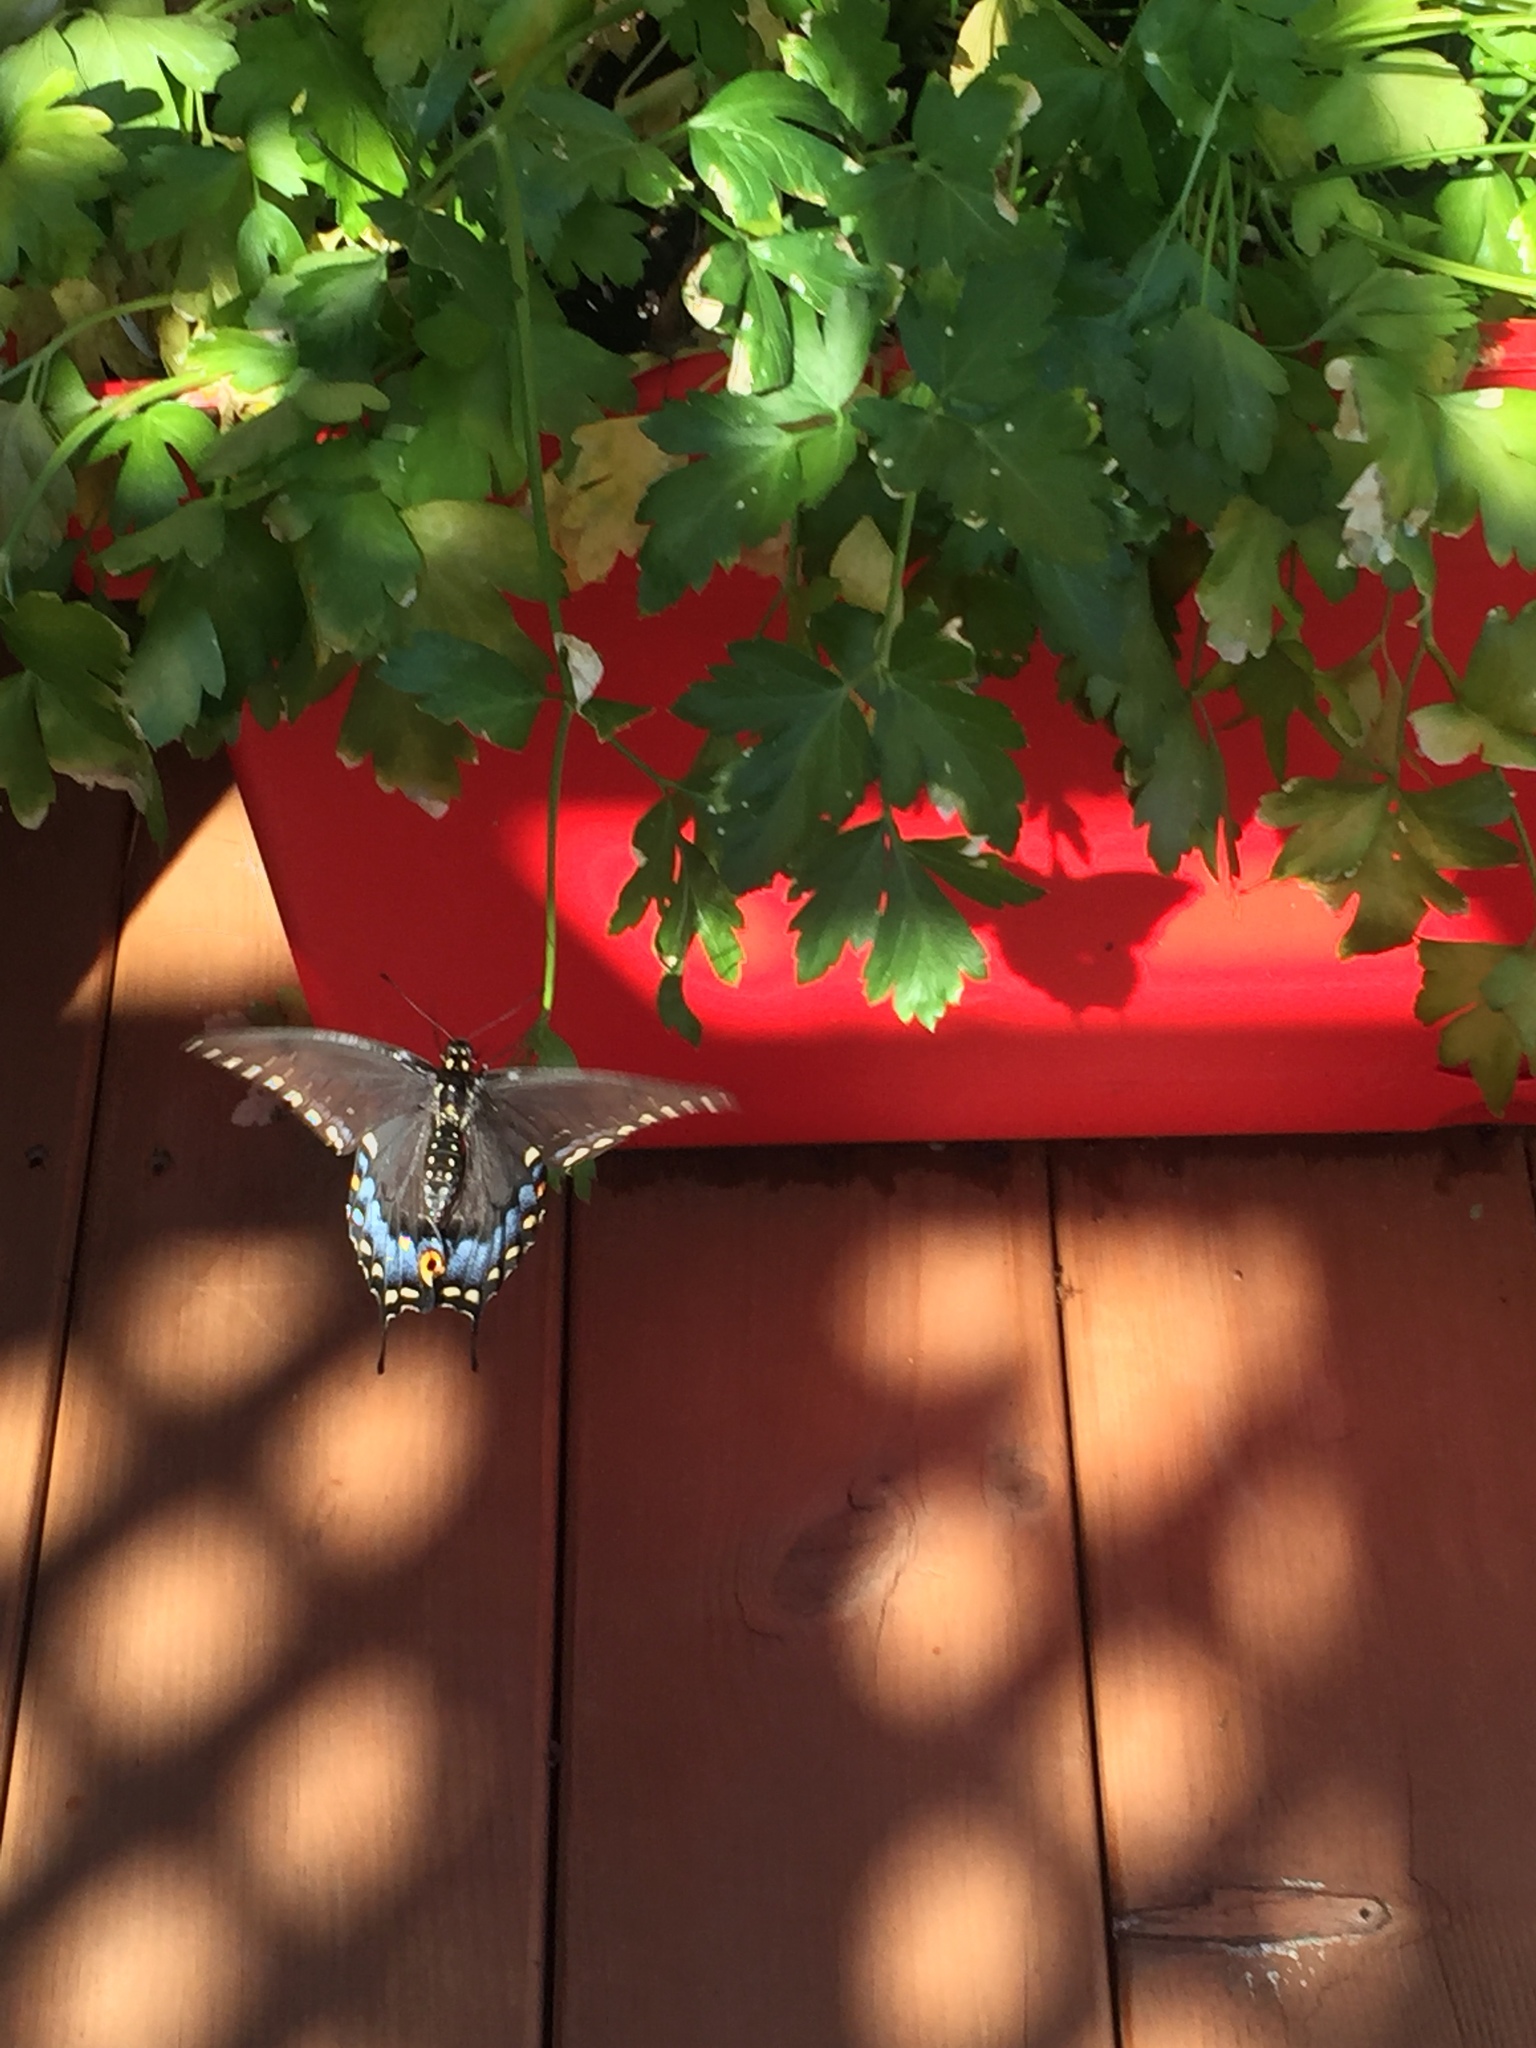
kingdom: Animalia
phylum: Arthropoda
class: Insecta
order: Lepidoptera
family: Papilionidae
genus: Papilio
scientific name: Papilio polyxenes
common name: Black swallowtail
